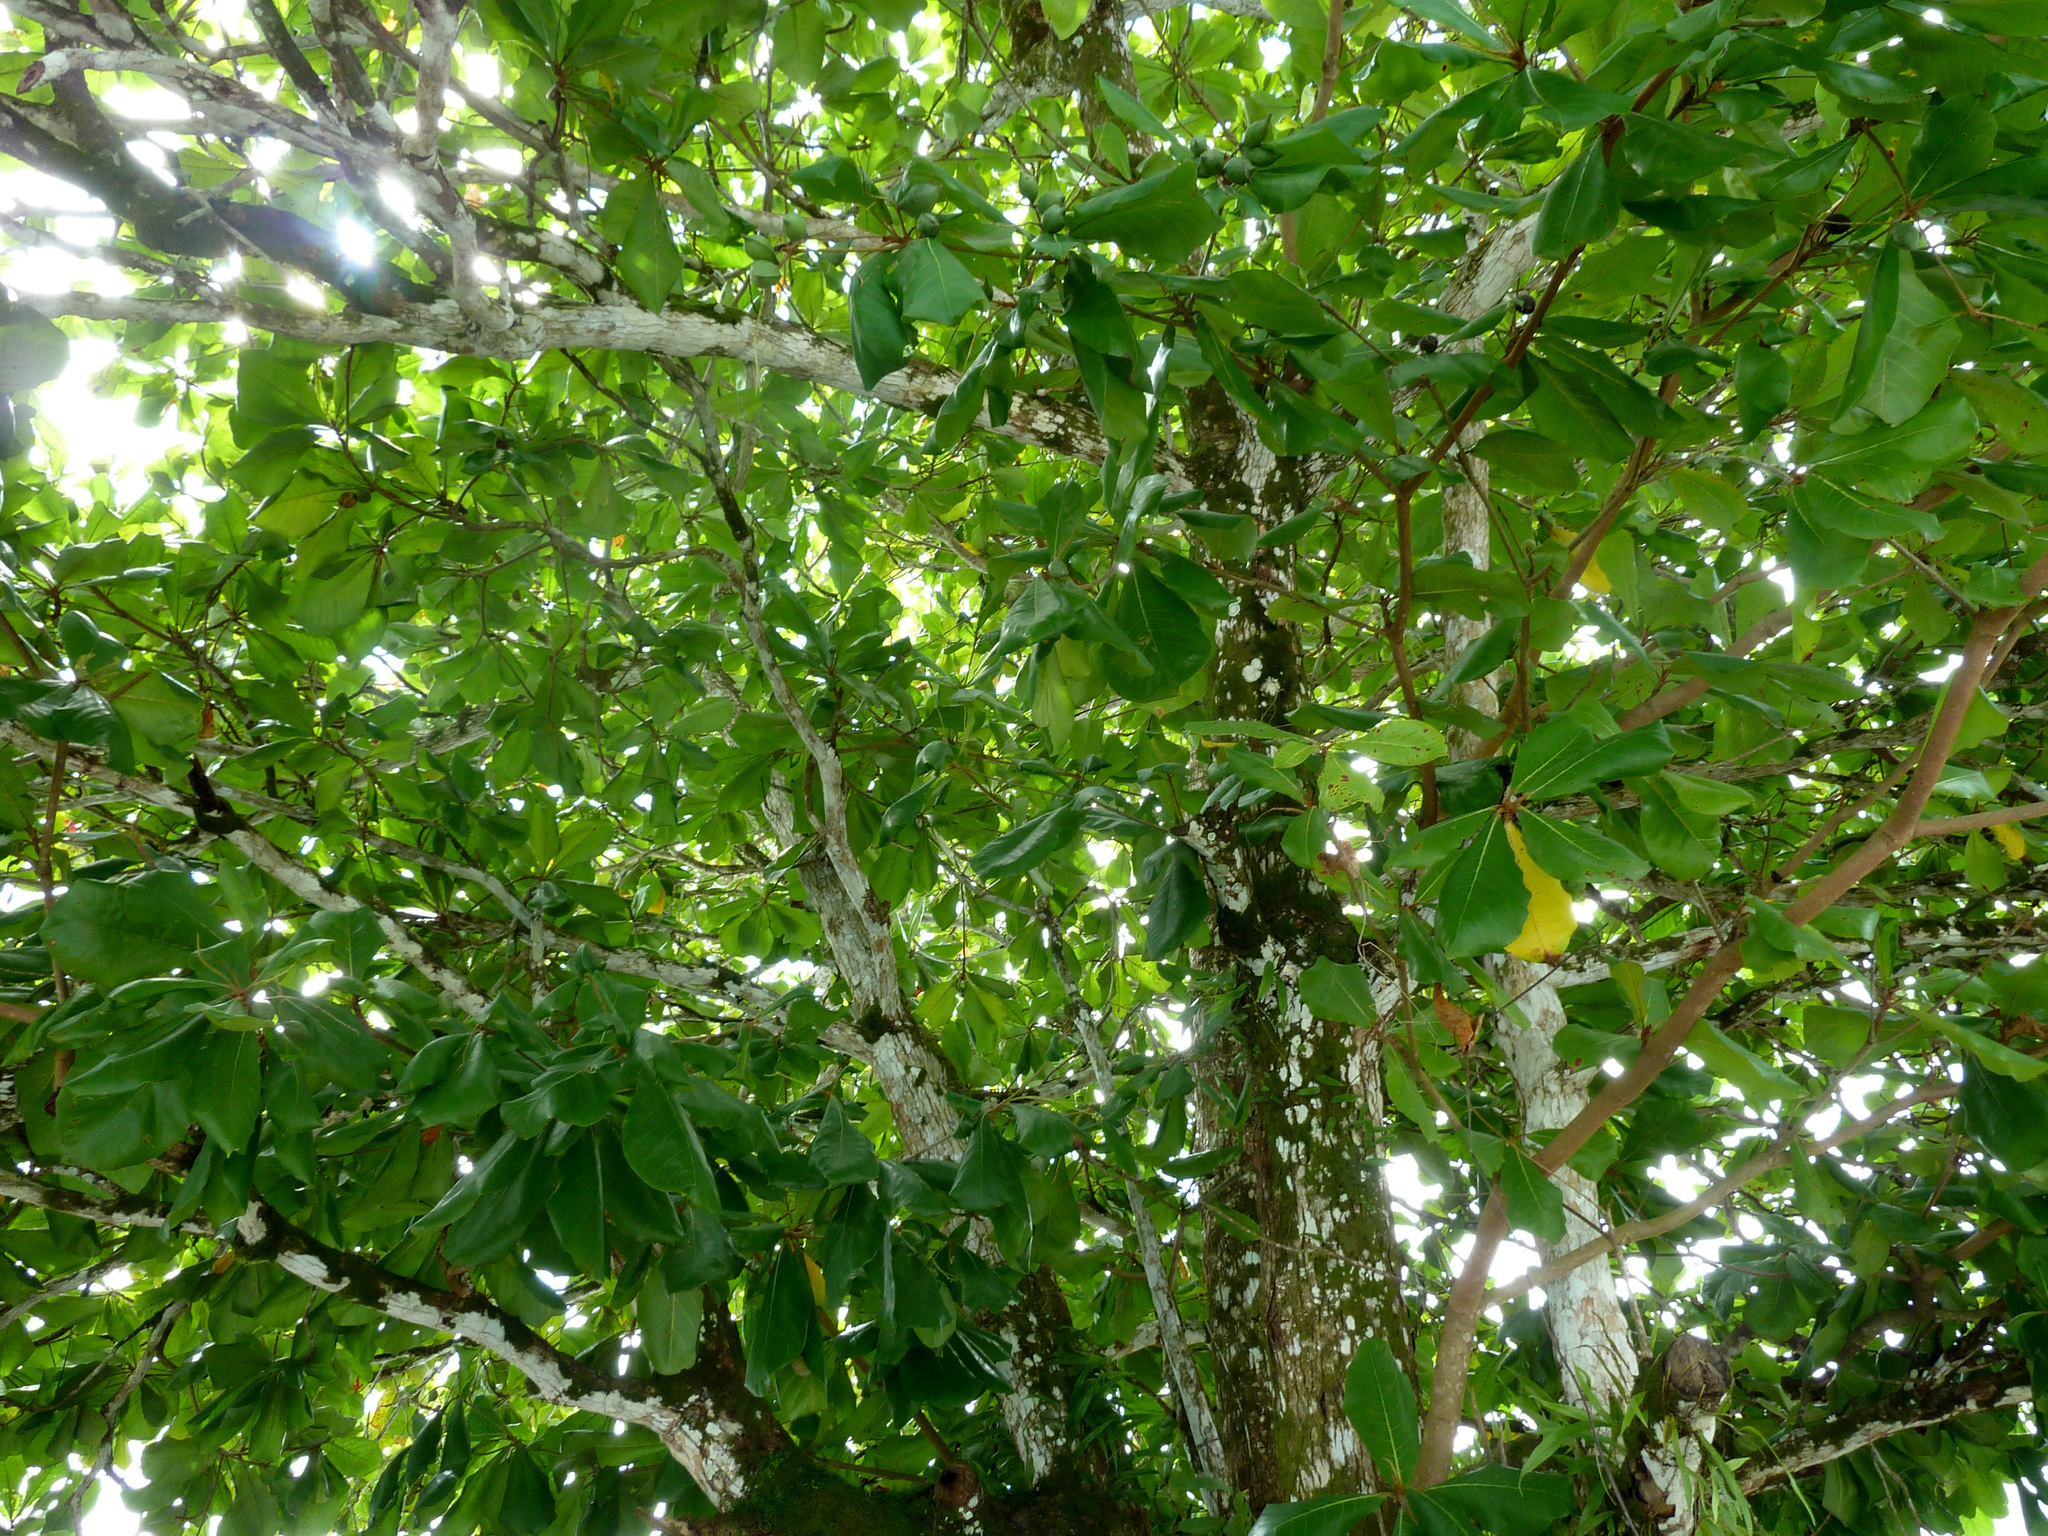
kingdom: Plantae
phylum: Tracheophyta
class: Magnoliopsida
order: Myrtales
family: Combretaceae
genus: Terminalia
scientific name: Terminalia catappa
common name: Tropical almond
